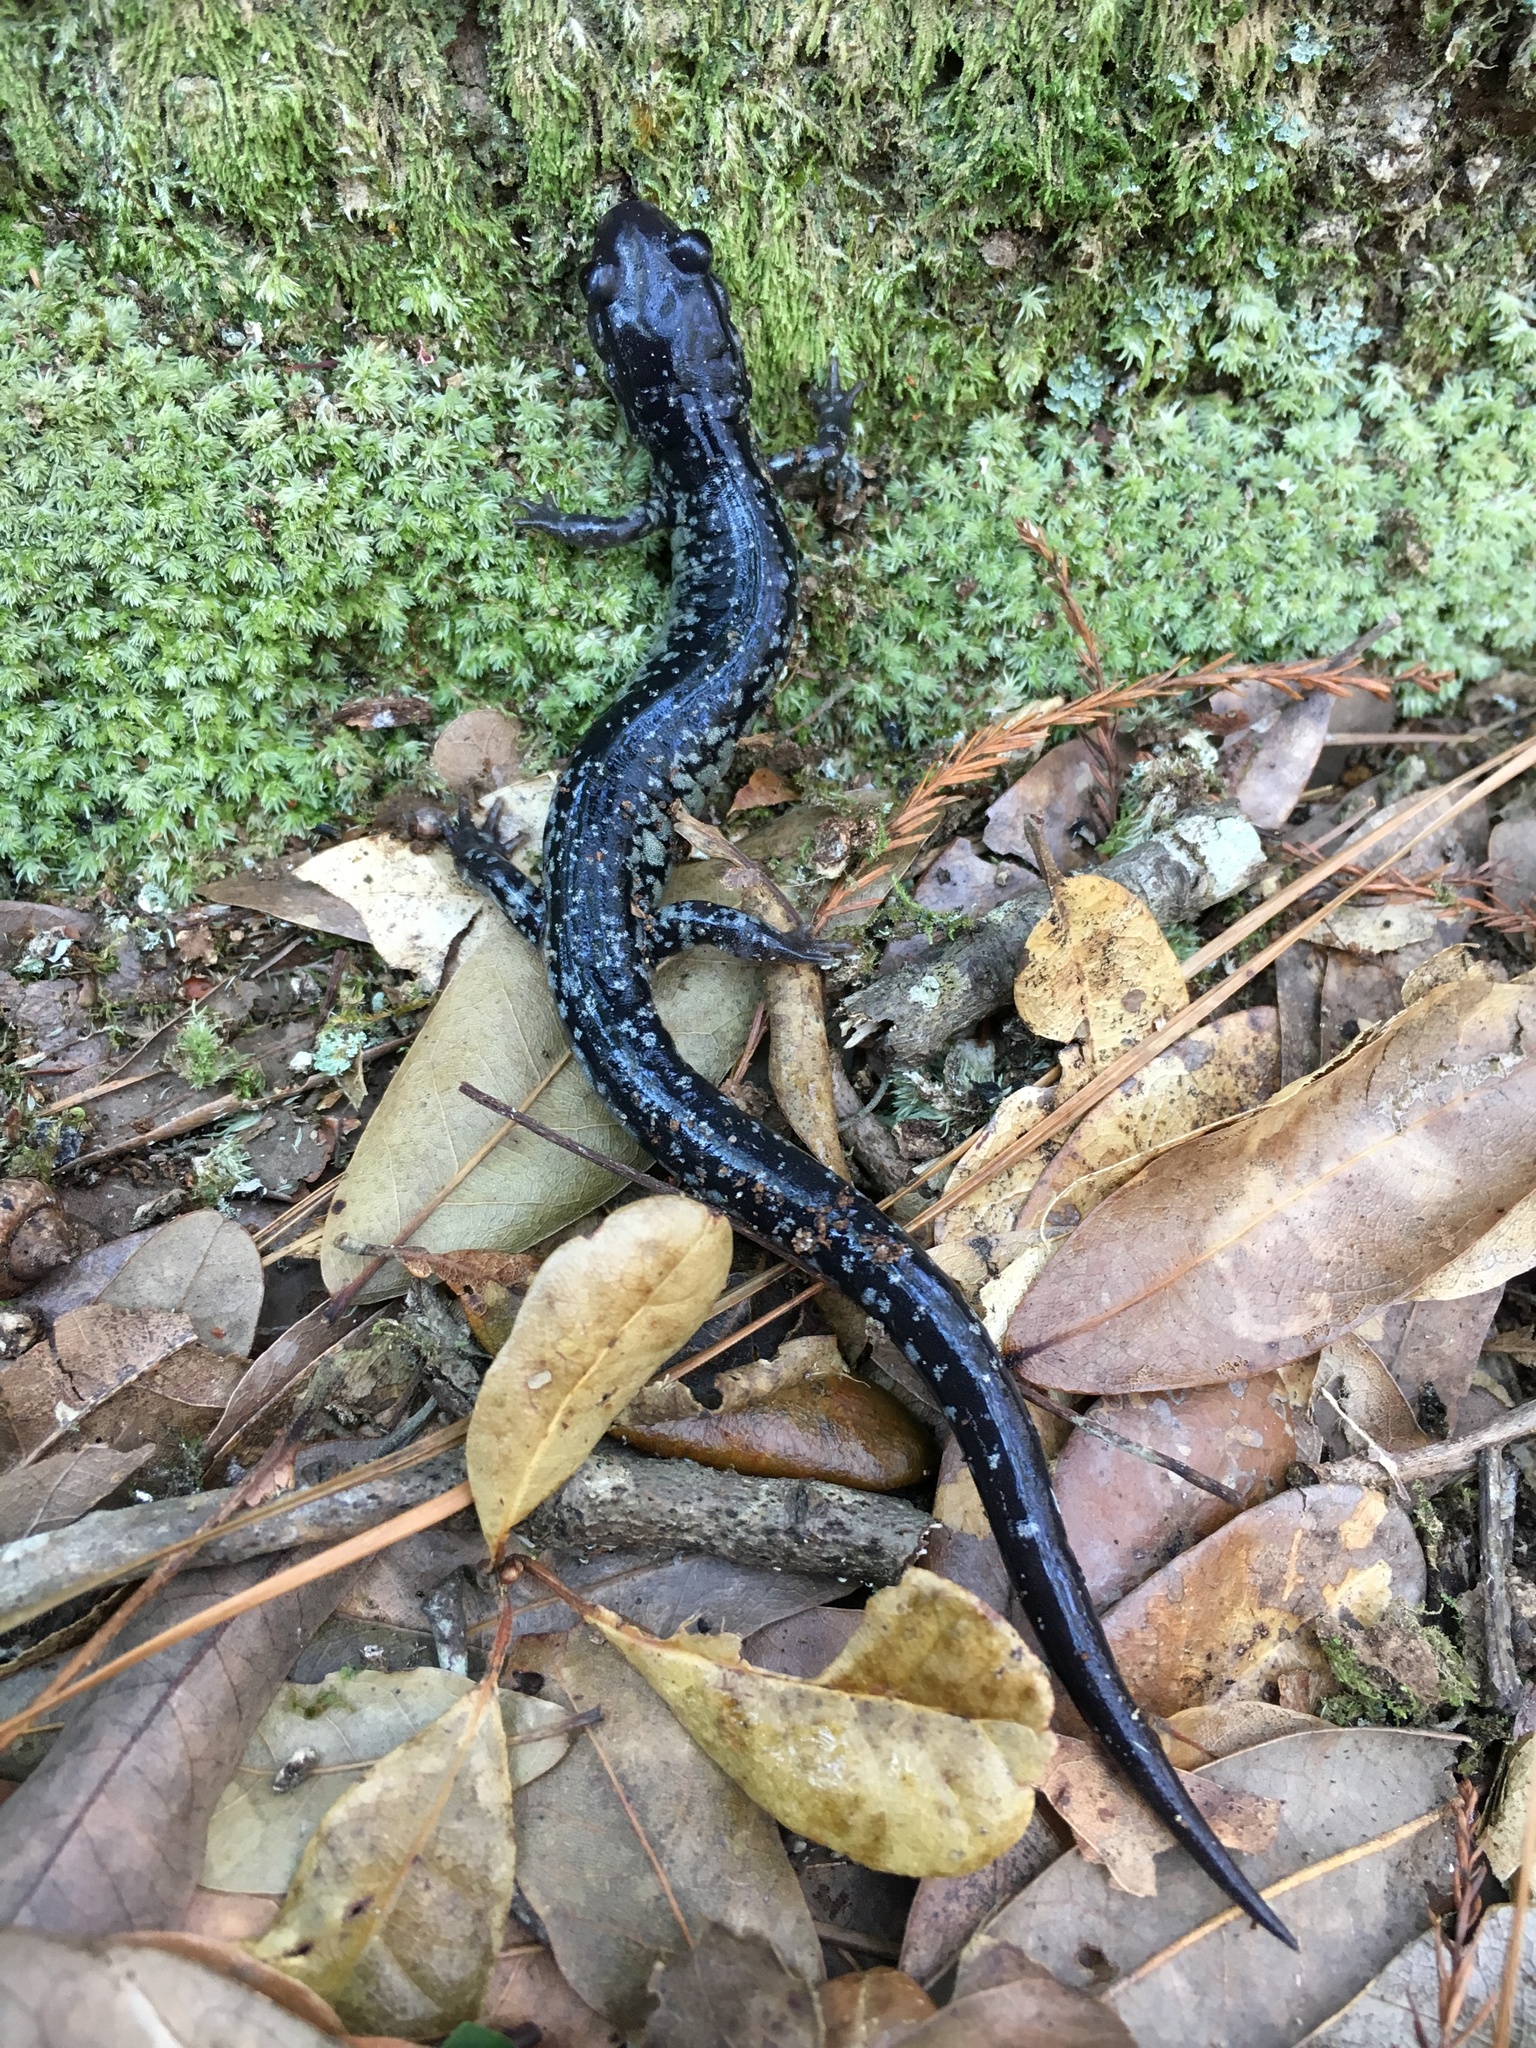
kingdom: Animalia
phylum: Chordata
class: Amphibia
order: Caudata
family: Plethodontidae
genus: Plethodon
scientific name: Plethodon variolatus
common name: South carolina slimy salamander
